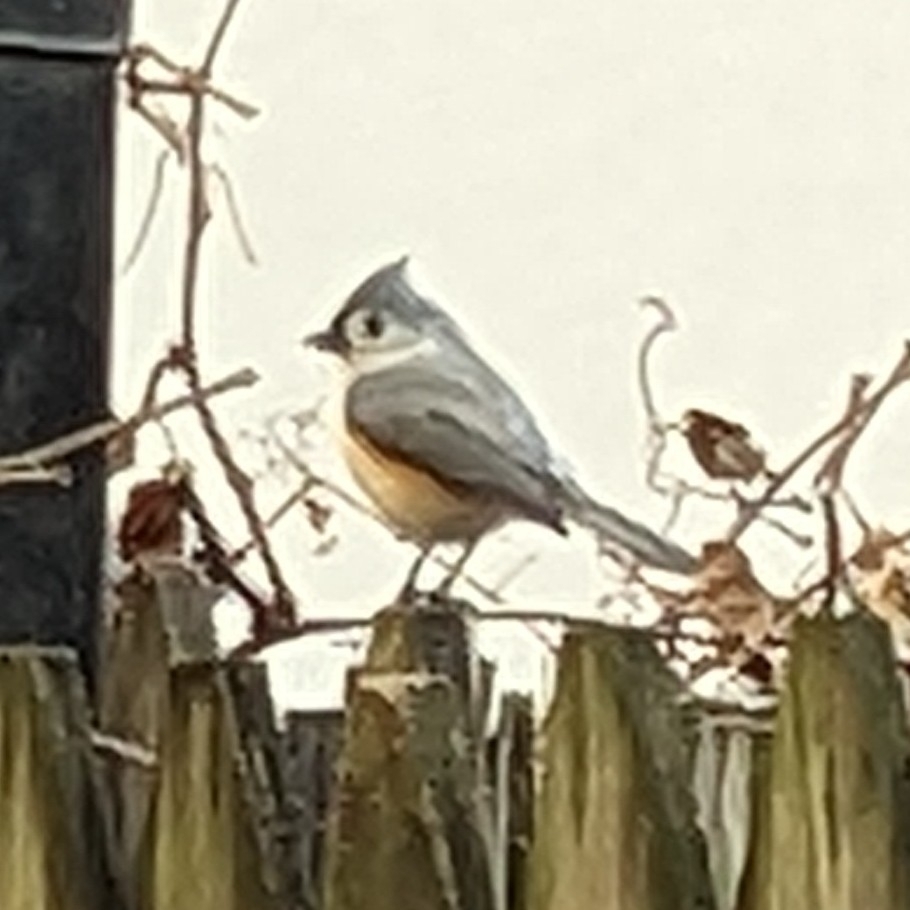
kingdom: Animalia
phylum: Chordata
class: Aves
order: Passeriformes
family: Paridae
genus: Baeolophus
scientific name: Baeolophus bicolor
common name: Tufted titmouse
